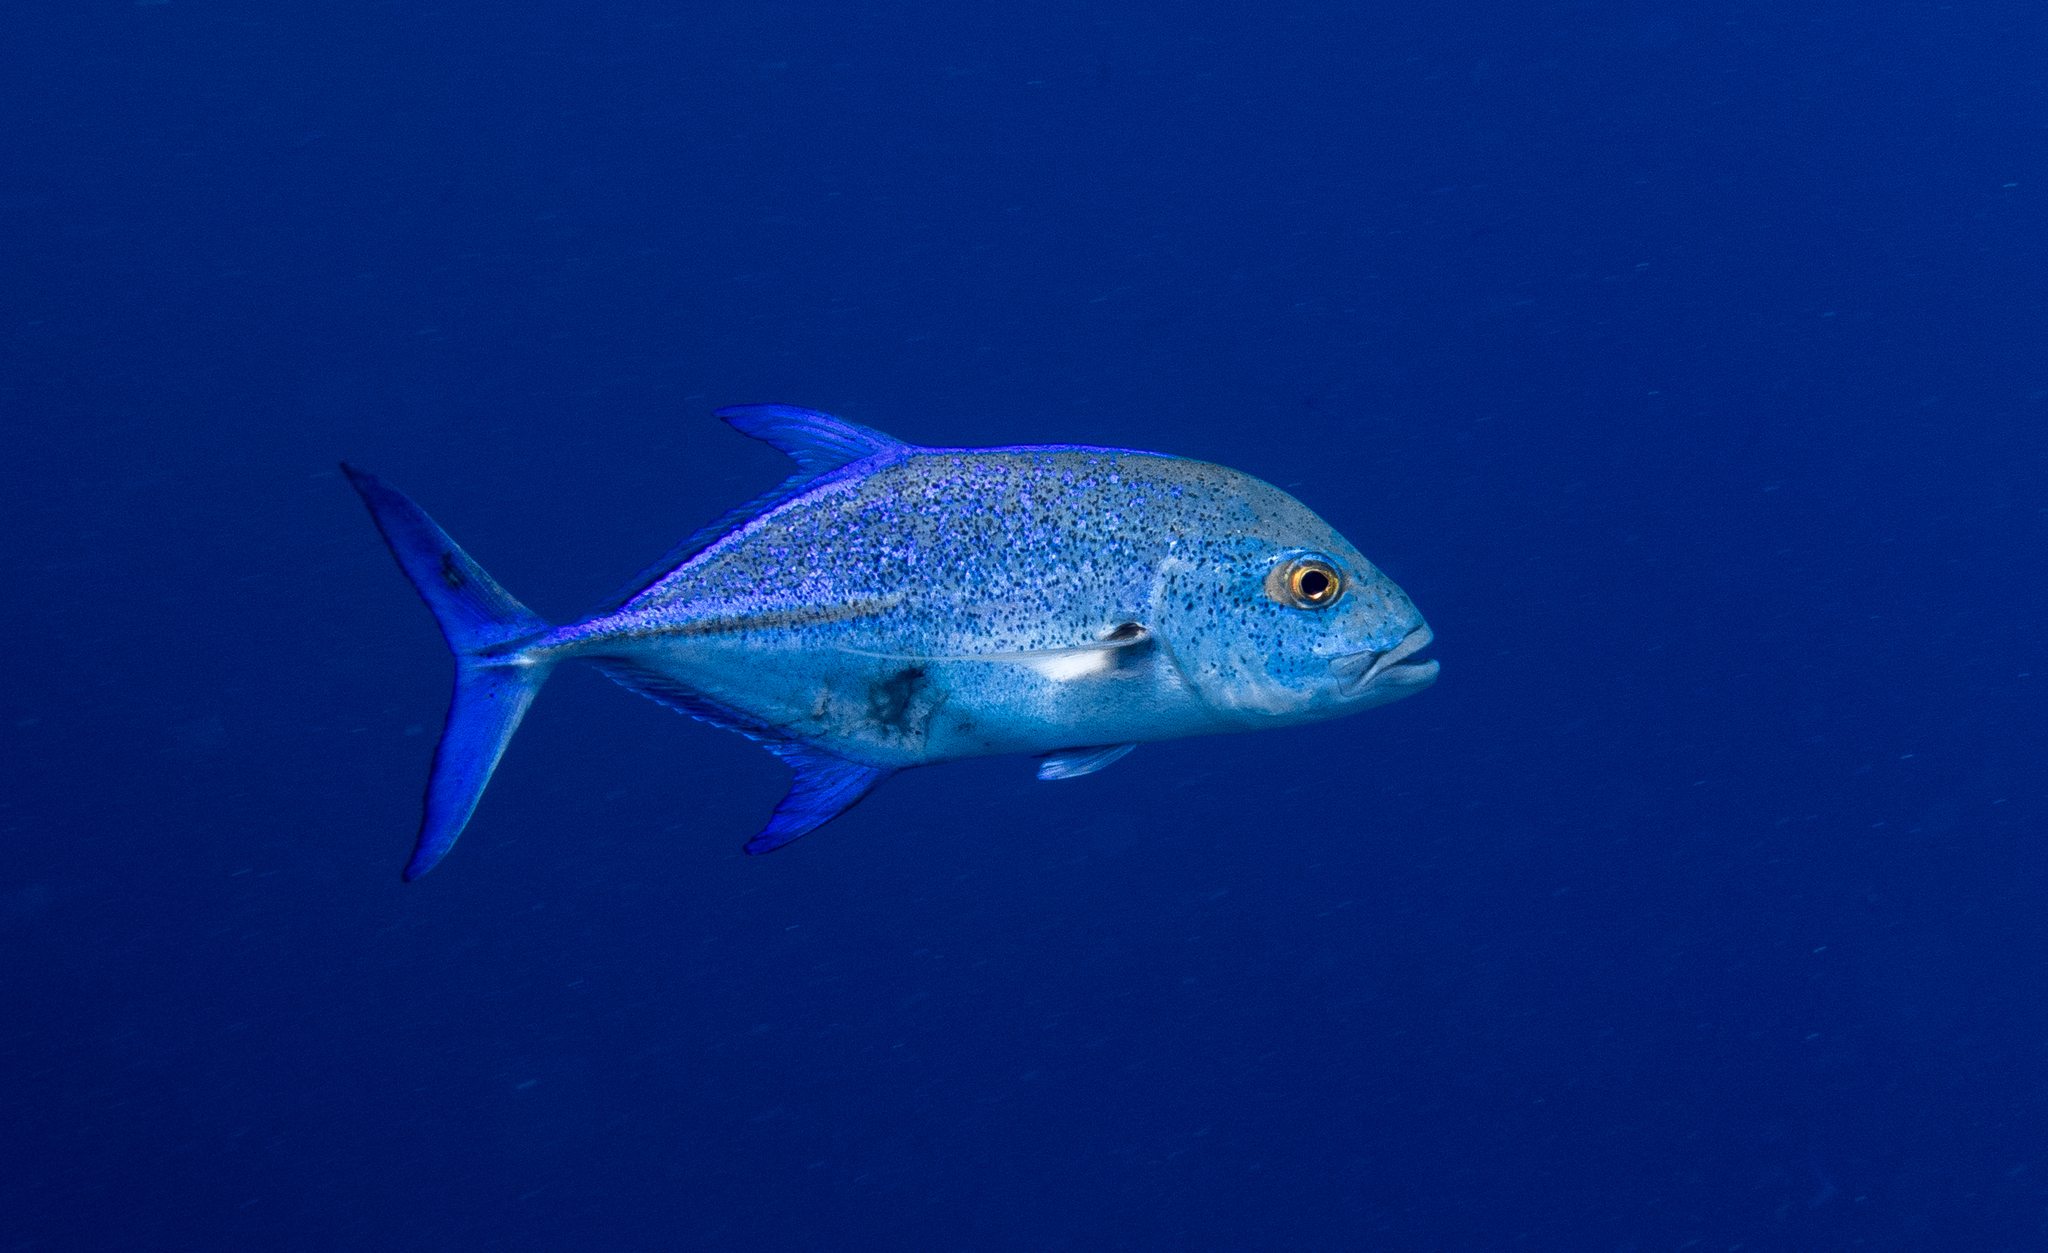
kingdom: Animalia
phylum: Chordata
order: Perciformes
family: Carangidae
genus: Caranx
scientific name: Caranx melampygus
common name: Bluefin trevally
